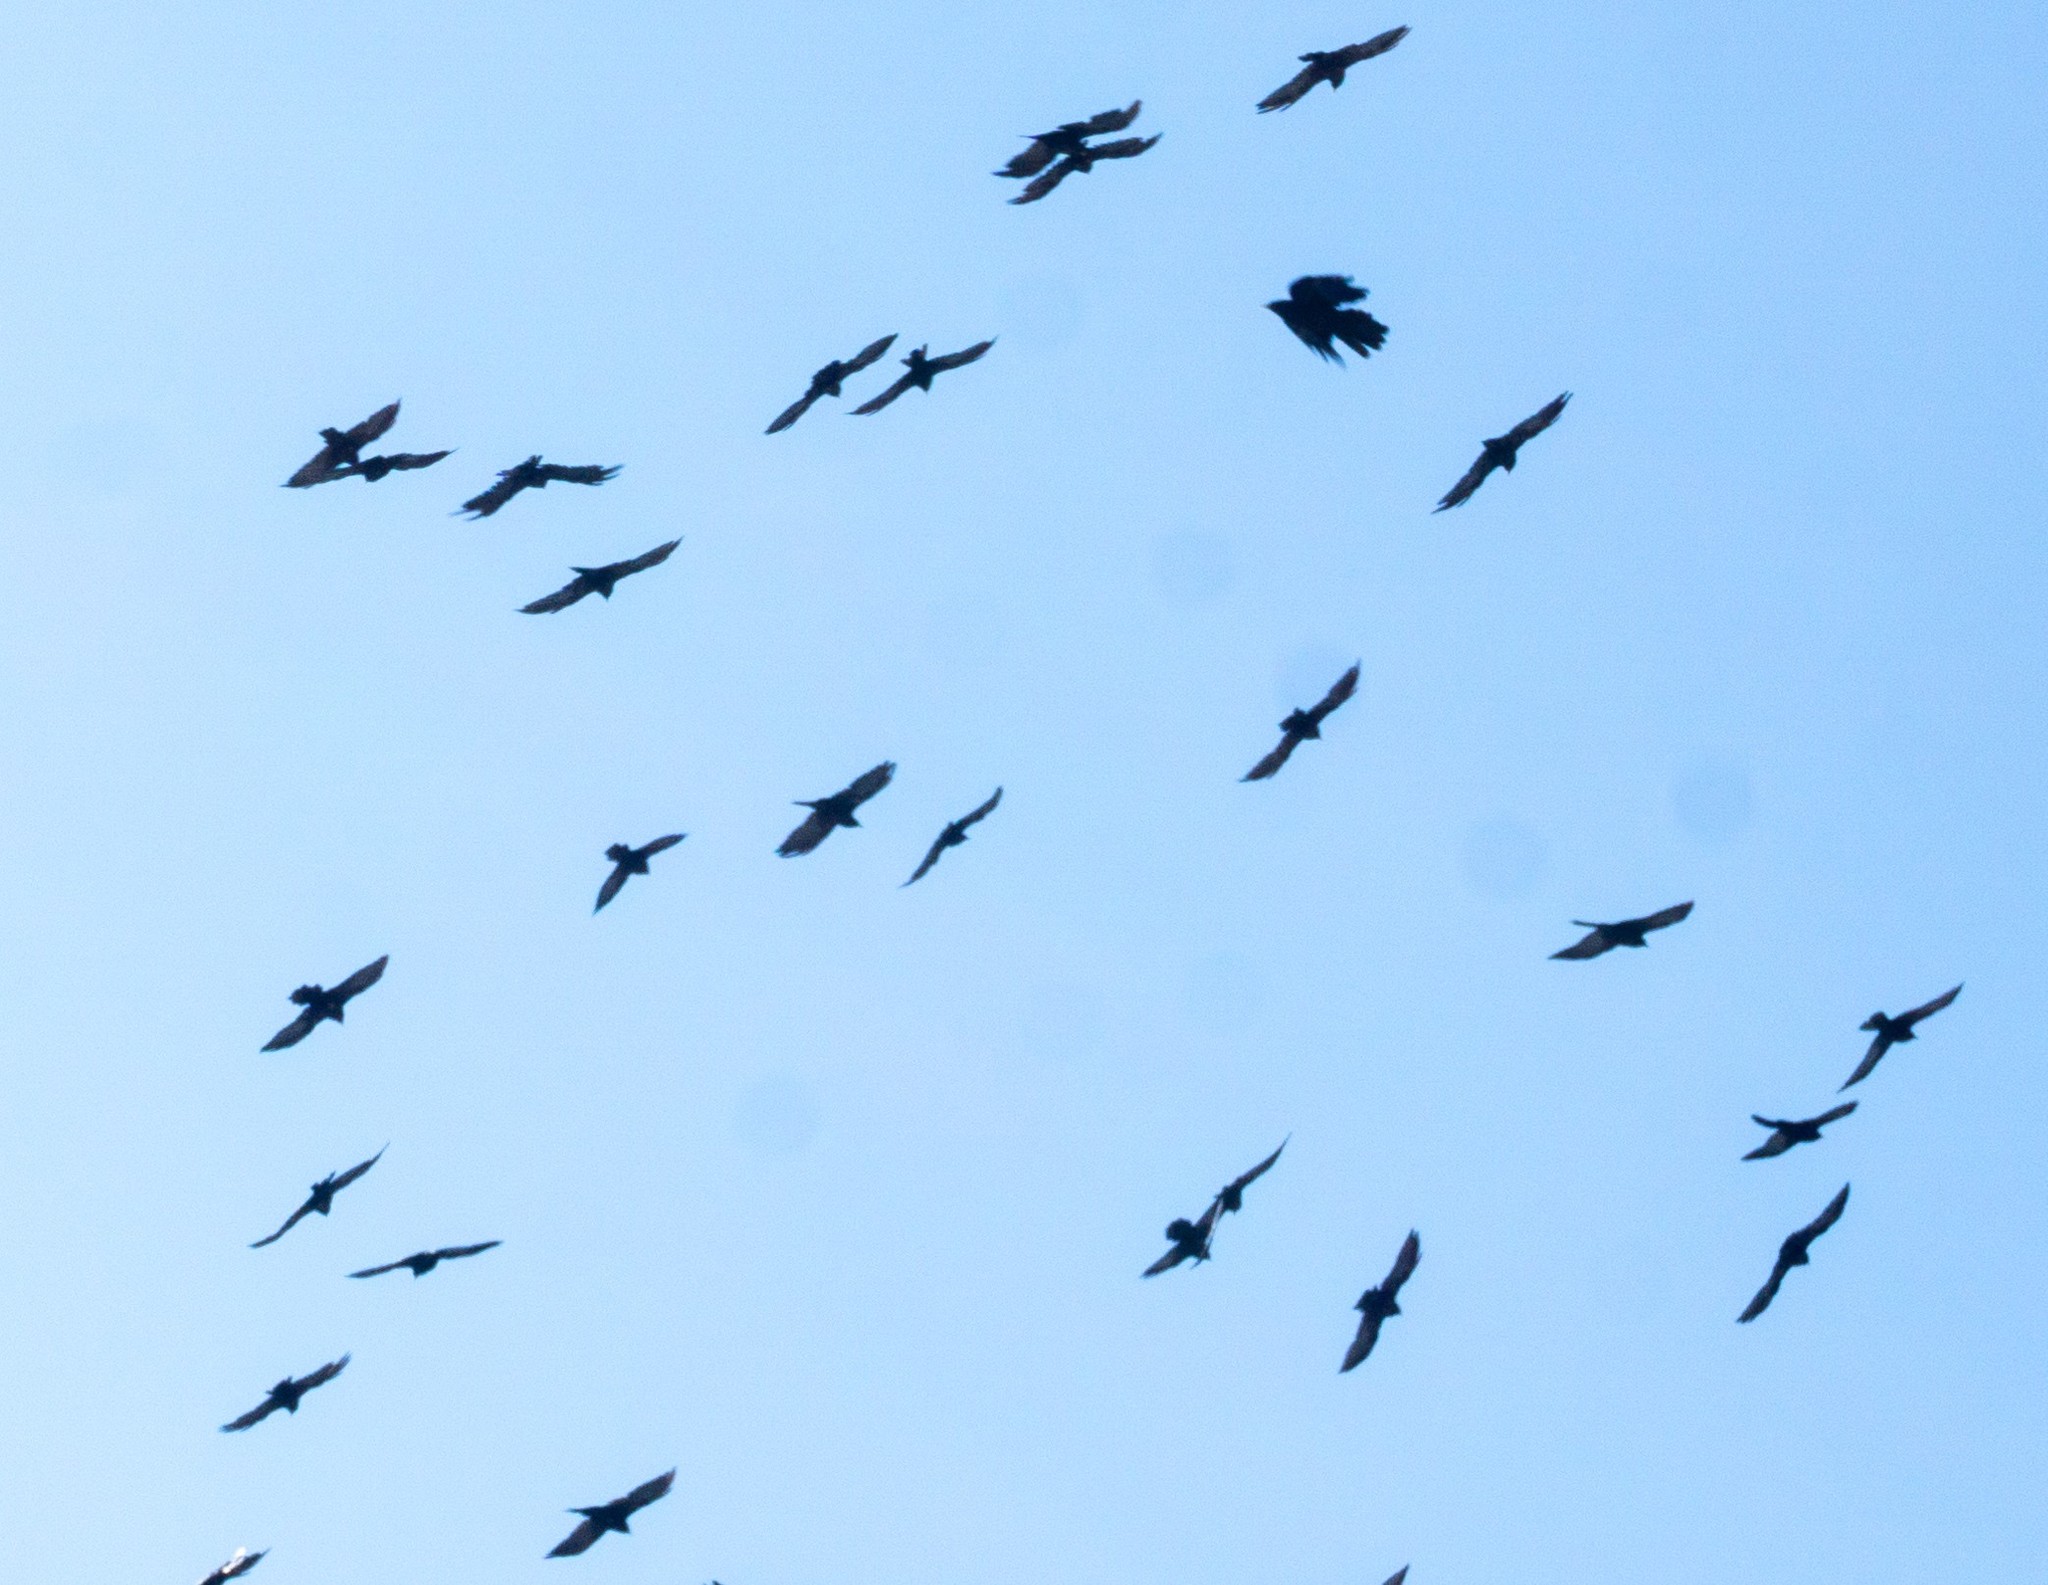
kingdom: Animalia
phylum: Chordata
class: Aves
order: Passeriformes
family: Corvidae
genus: Pyrrhocorax
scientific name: Pyrrhocorax graculus
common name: Alpine chough
